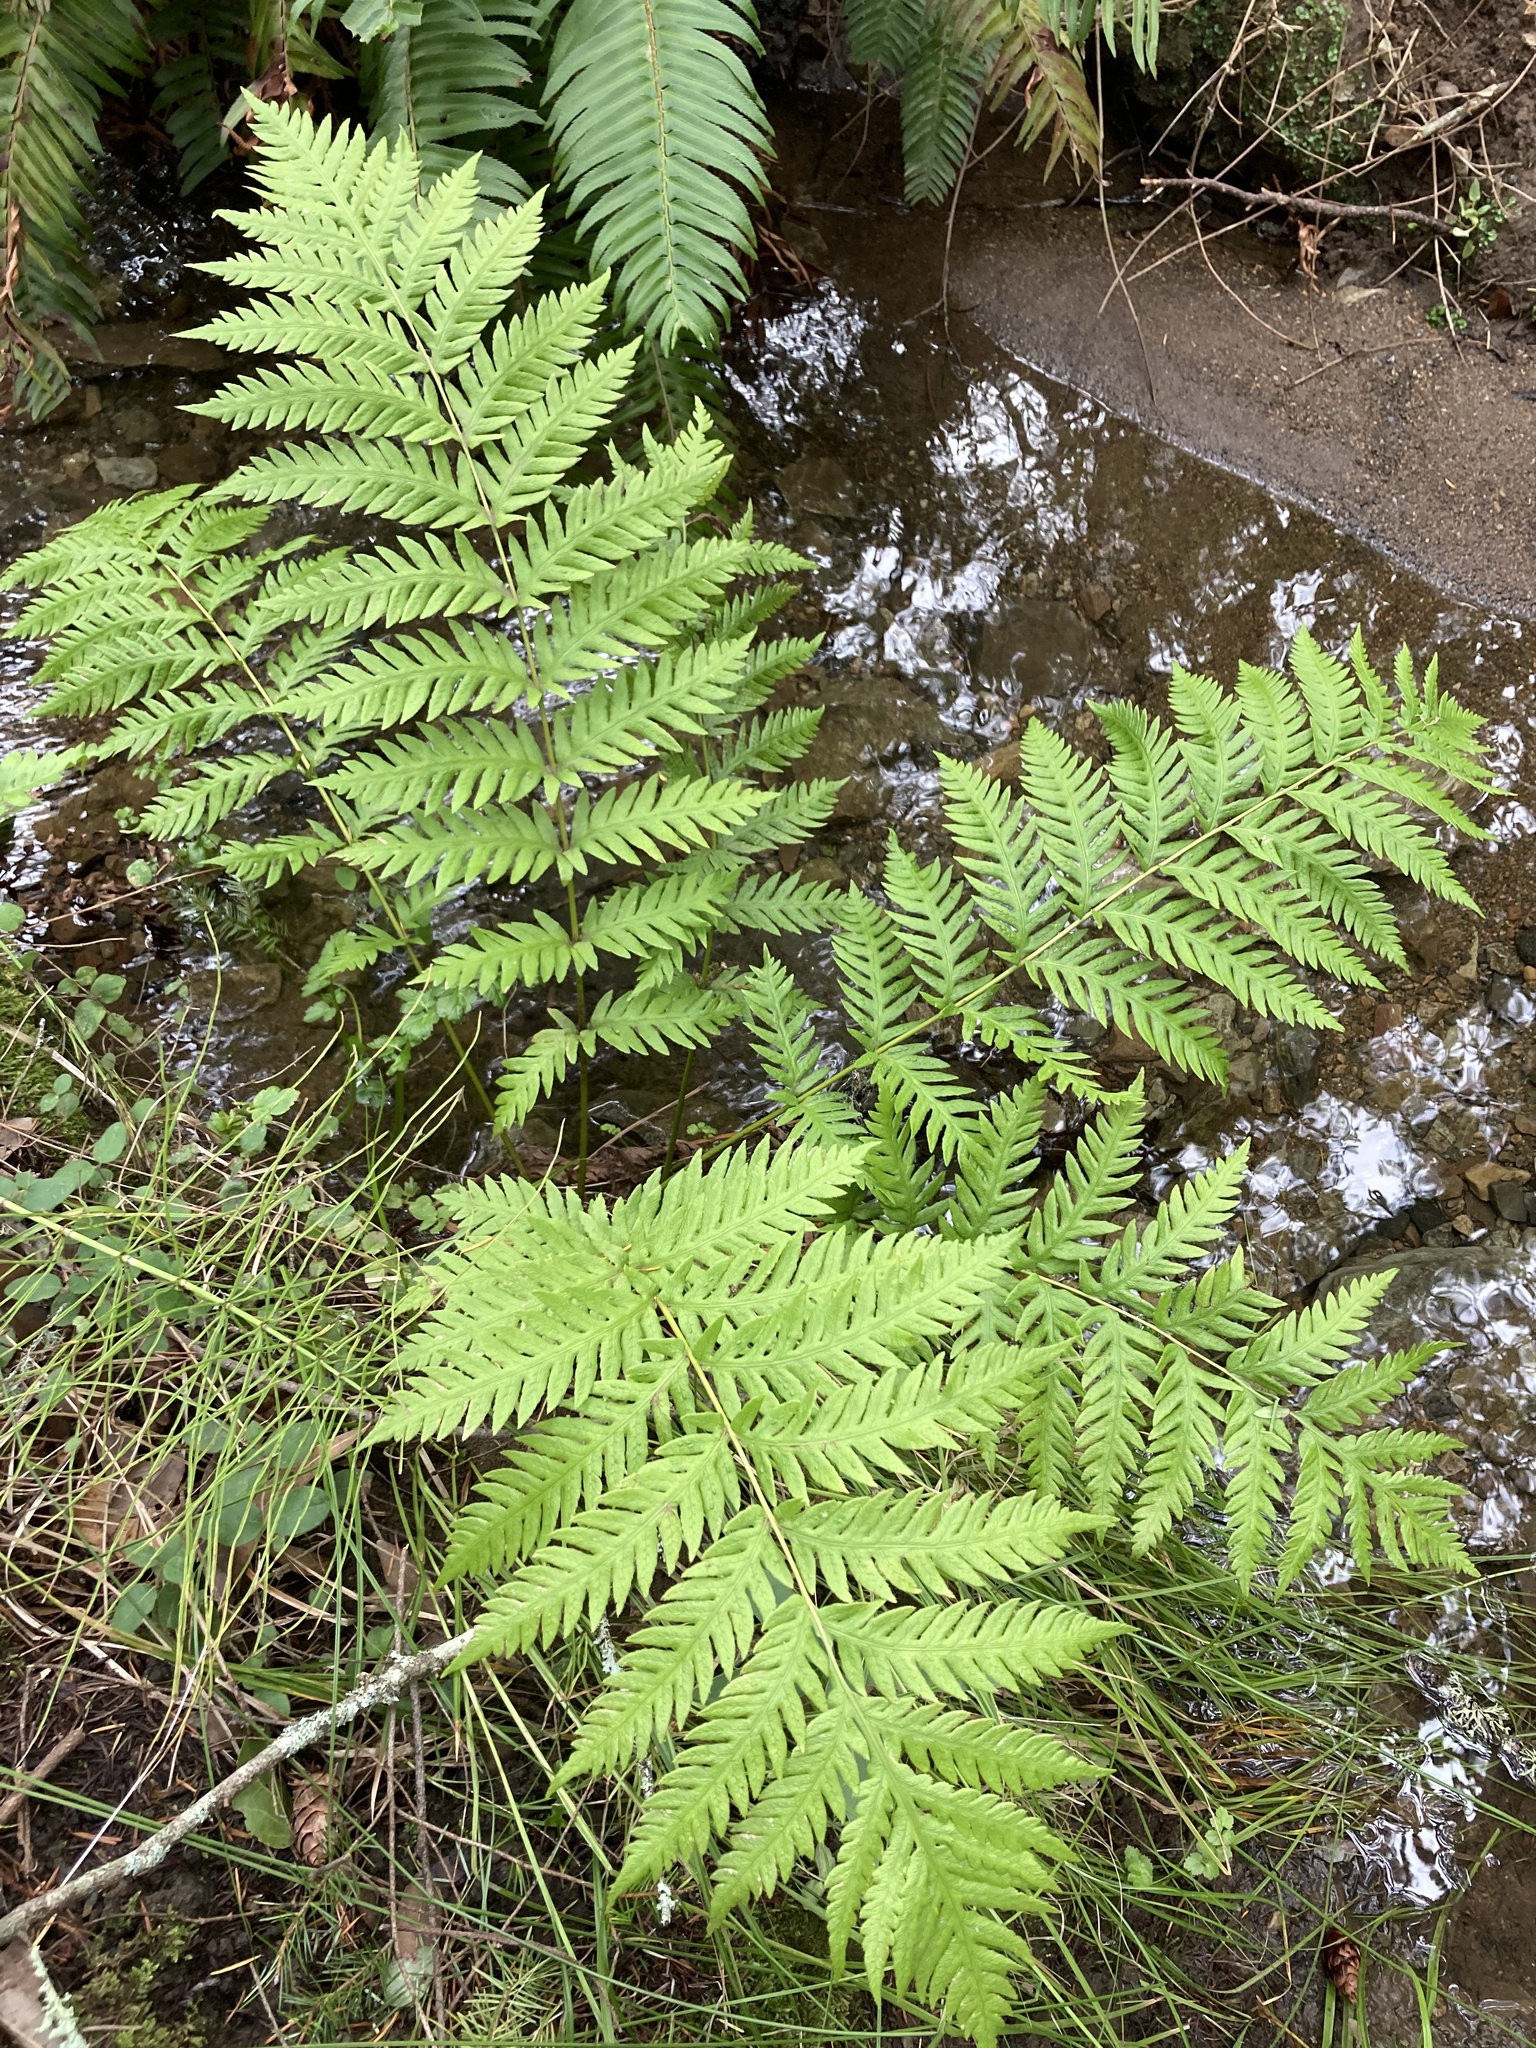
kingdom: Plantae
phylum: Tracheophyta
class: Polypodiopsida
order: Polypodiales
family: Blechnaceae
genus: Woodwardia
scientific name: Woodwardia fimbriata
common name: Giant chain fern
